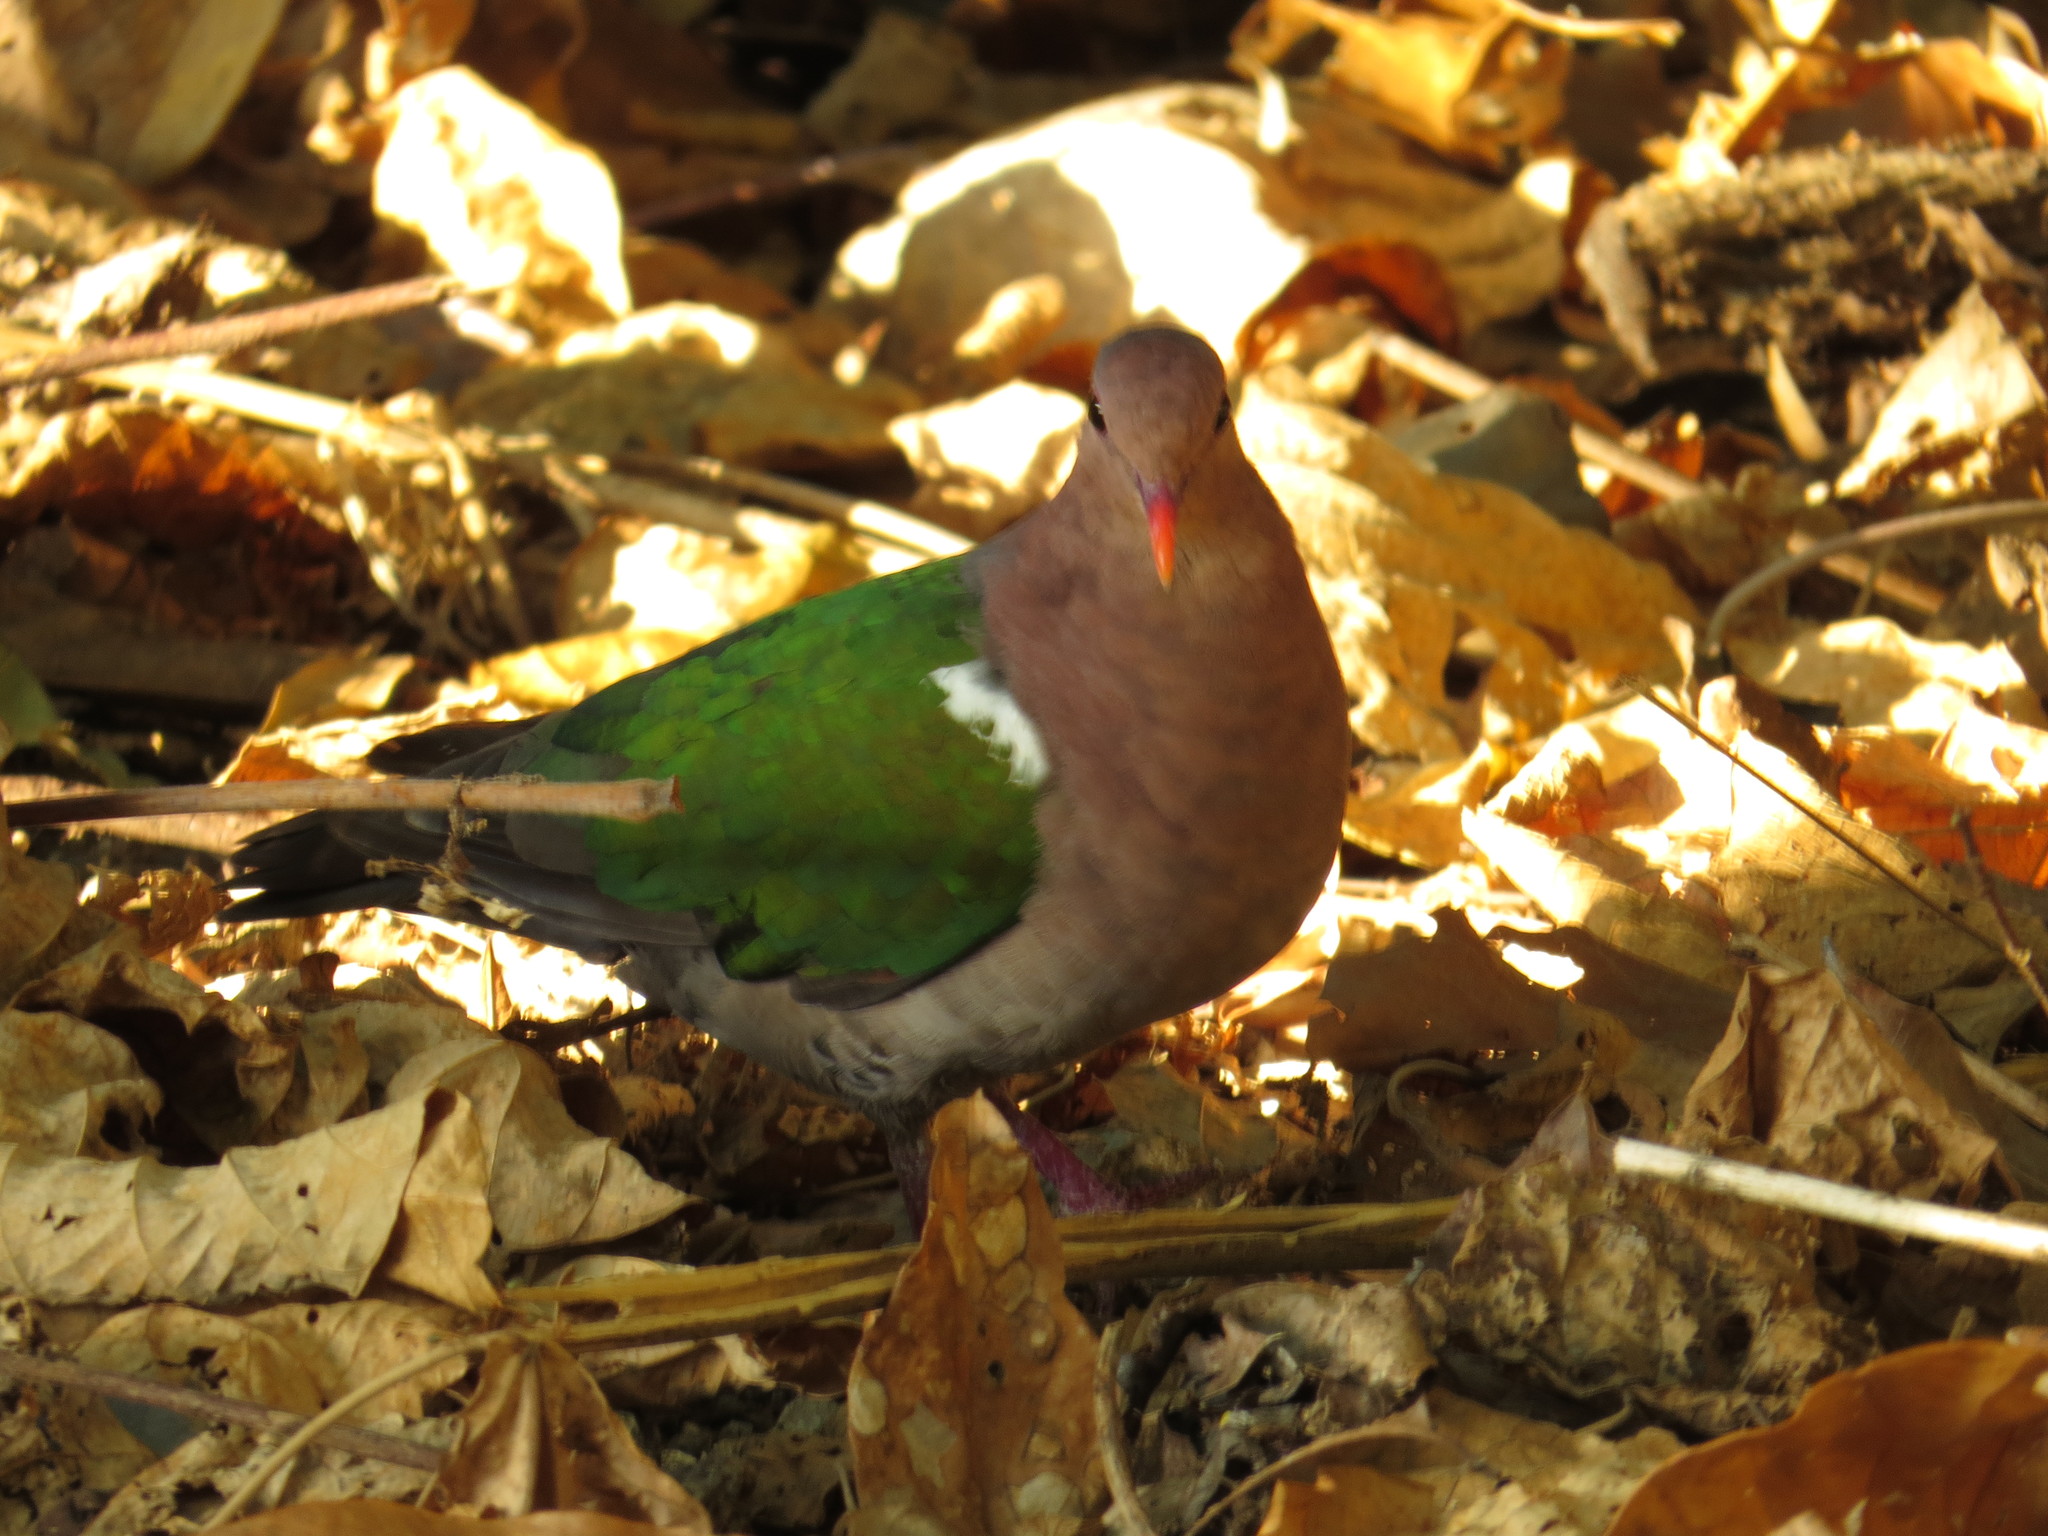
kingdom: Animalia
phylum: Chordata
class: Aves
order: Columbiformes
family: Columbidae
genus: Chalcophaps
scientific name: Chalcophaps longirostris
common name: Pacific emerald dove
